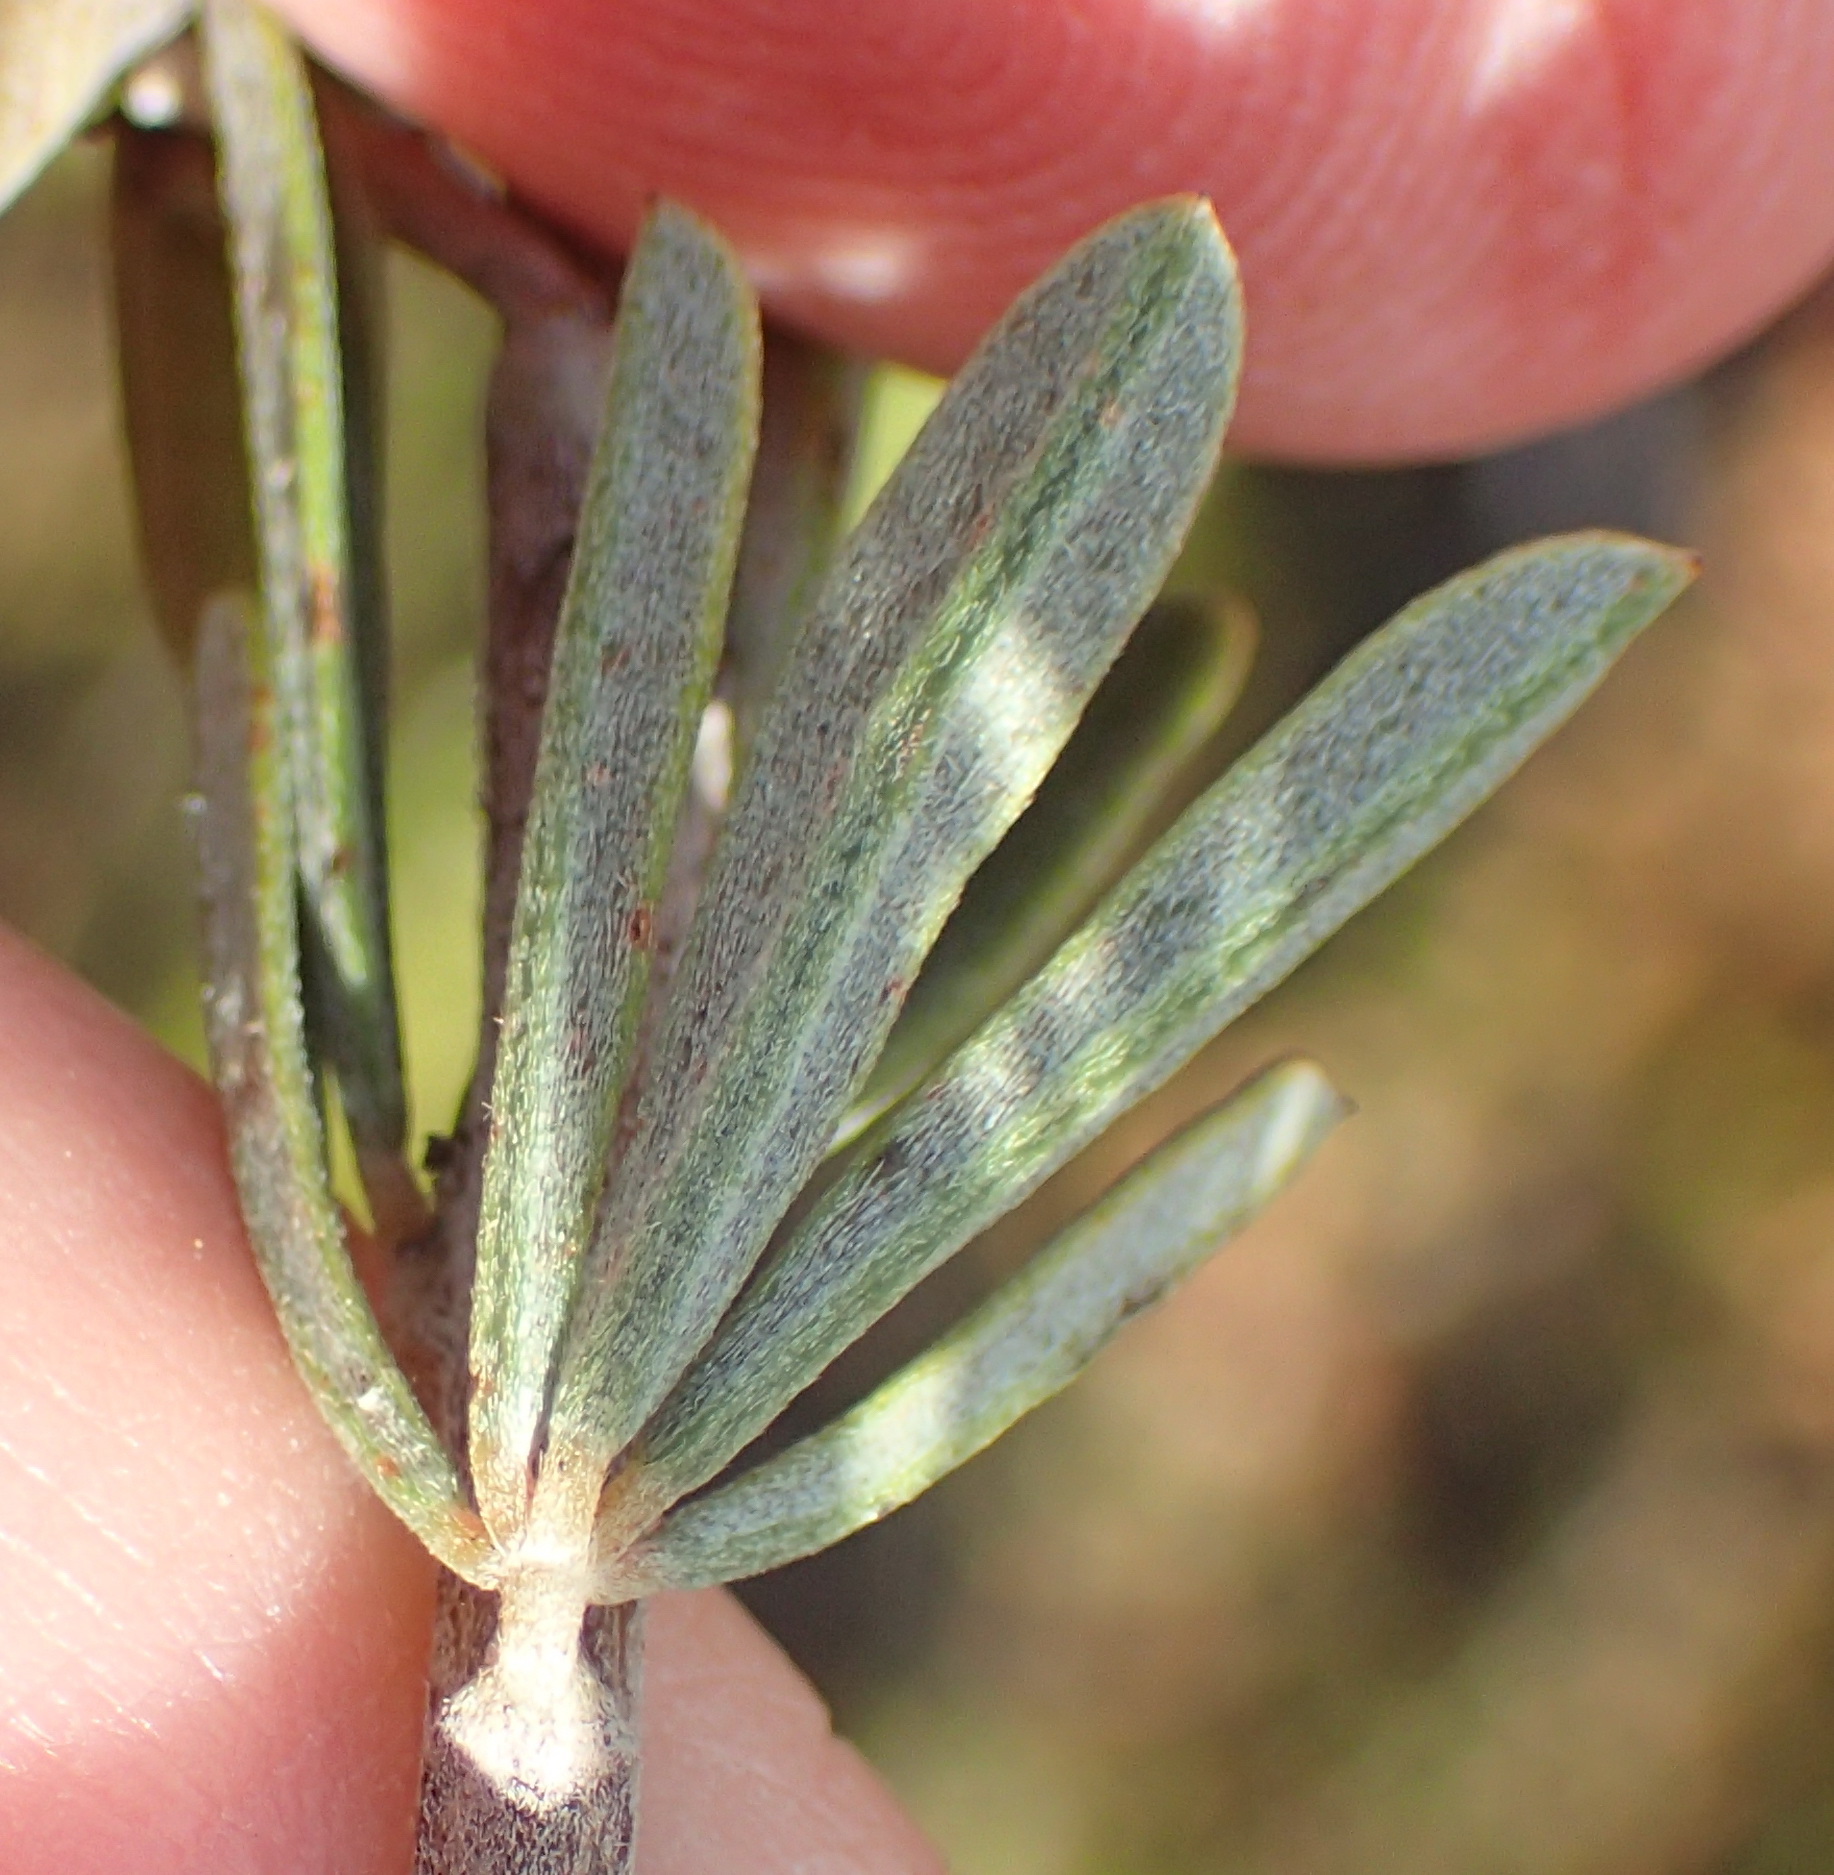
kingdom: Plantae
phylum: Tracheophyta
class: Magnoliopsida
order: Fabales
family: Fabaceae
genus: Indigofera
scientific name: Indigofera flabellata
